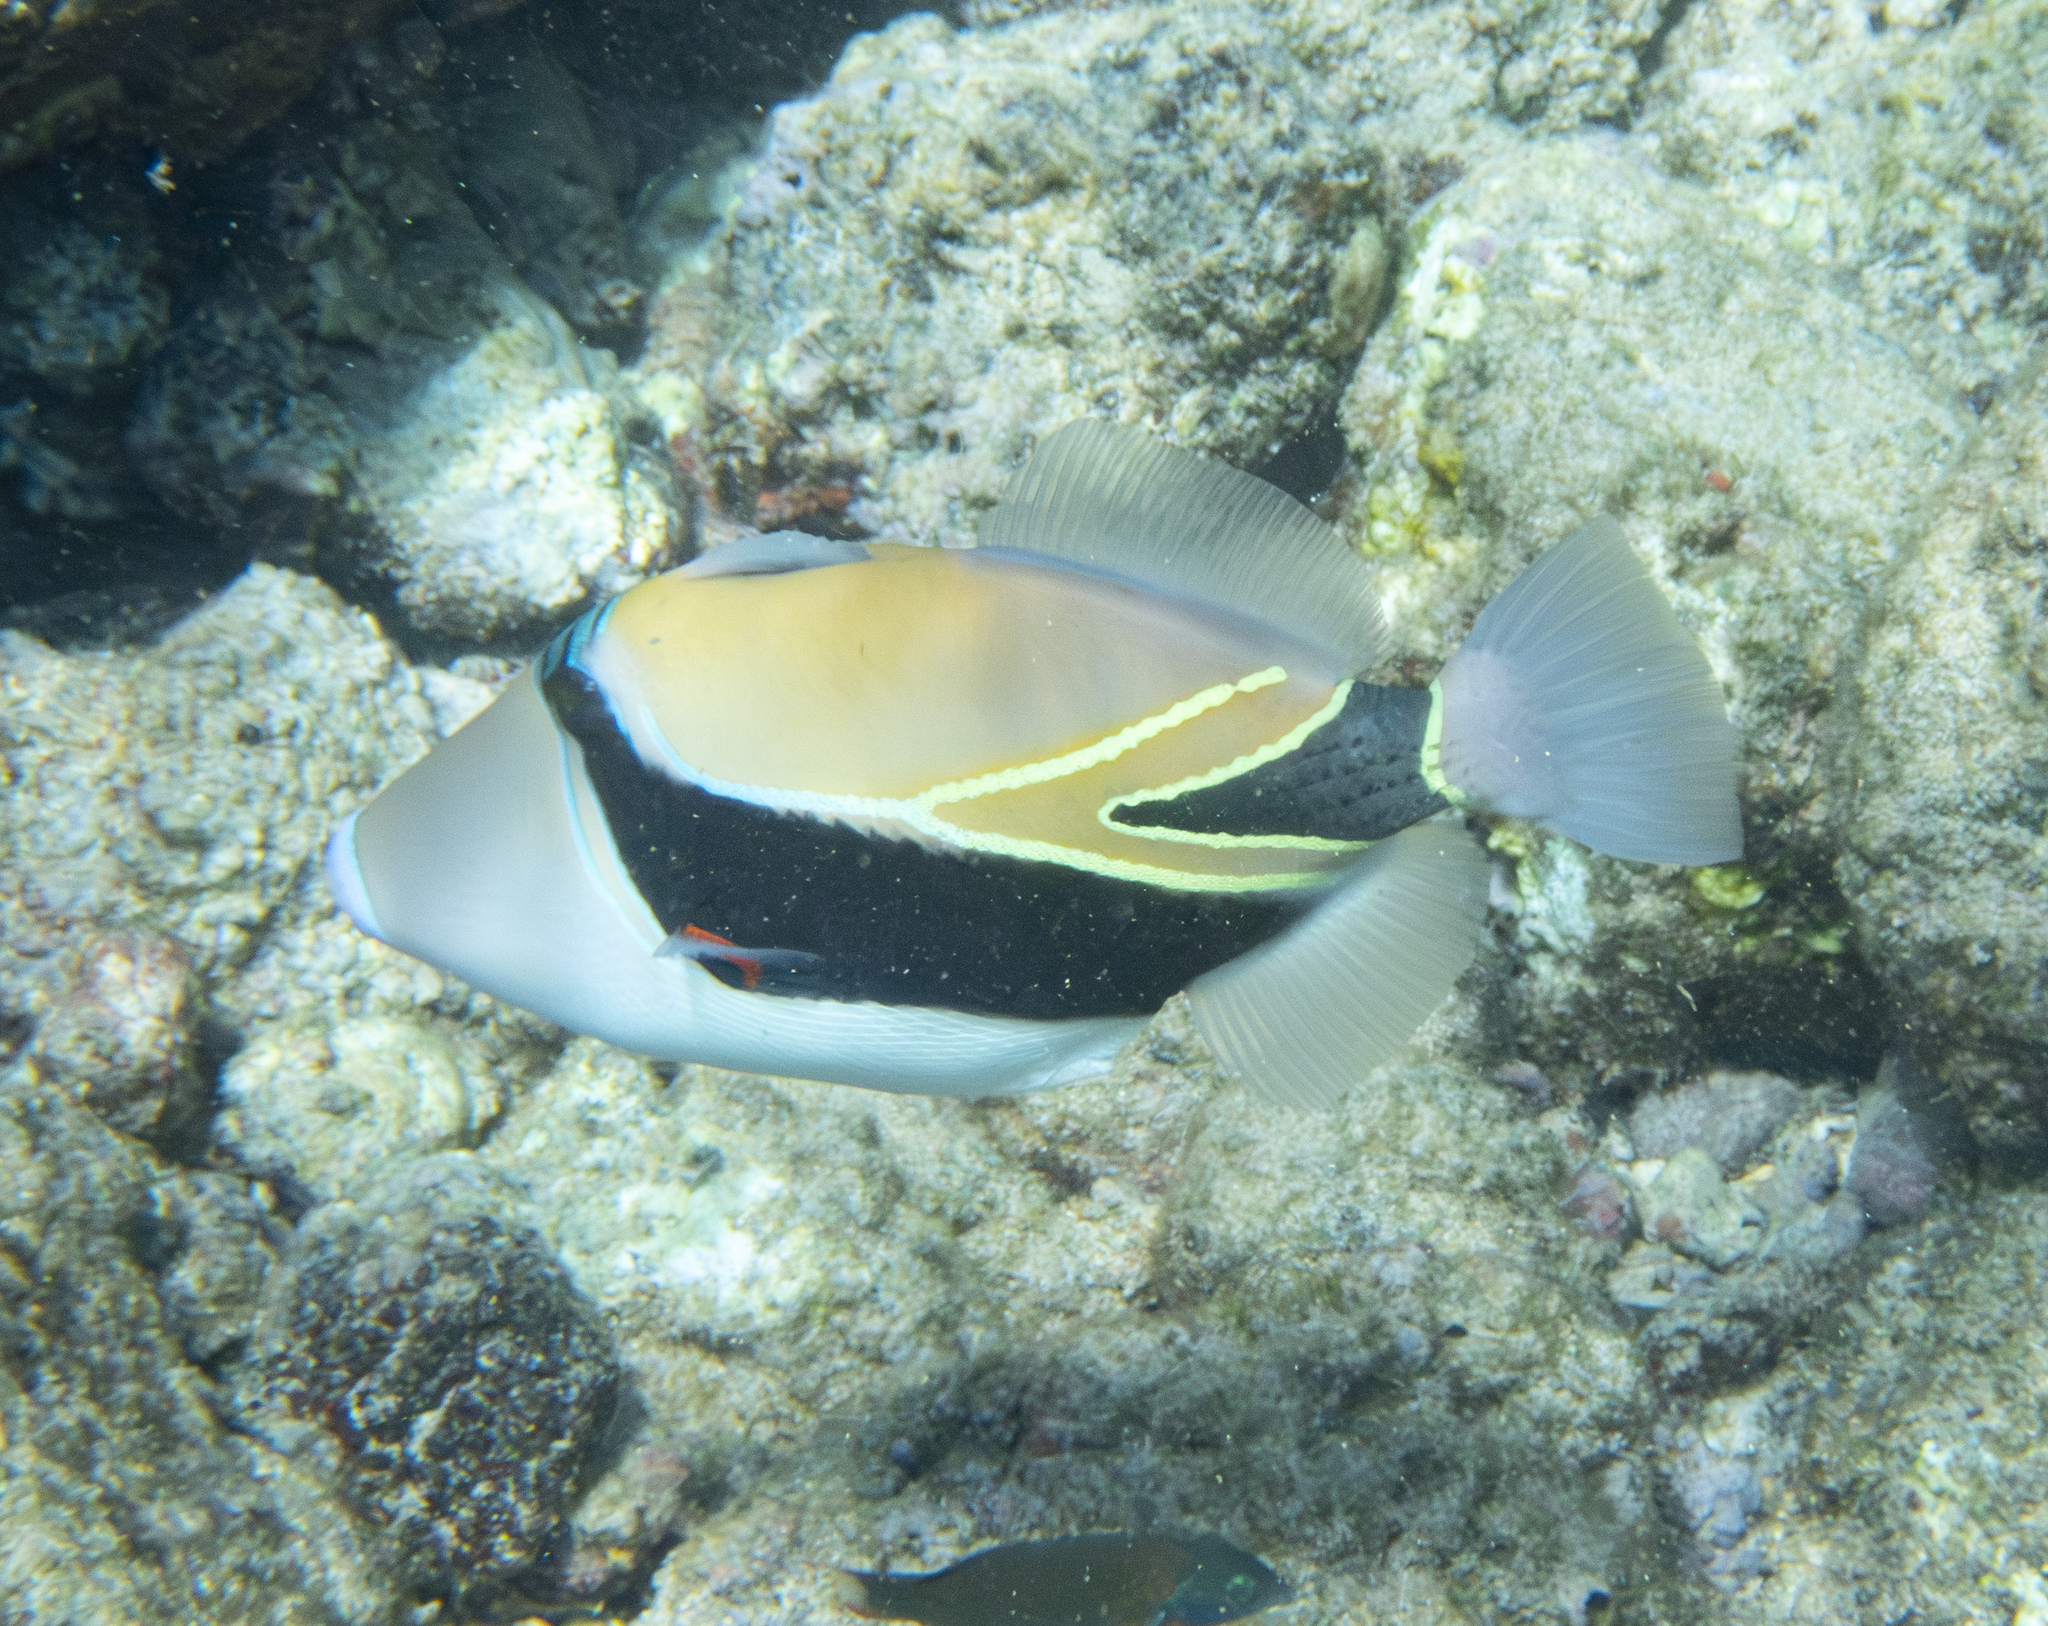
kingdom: Animalia
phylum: Chordata
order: Tetraodontiformes
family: Balistidae
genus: Rhinecanthus
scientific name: Rhinecanthus rectangulus
